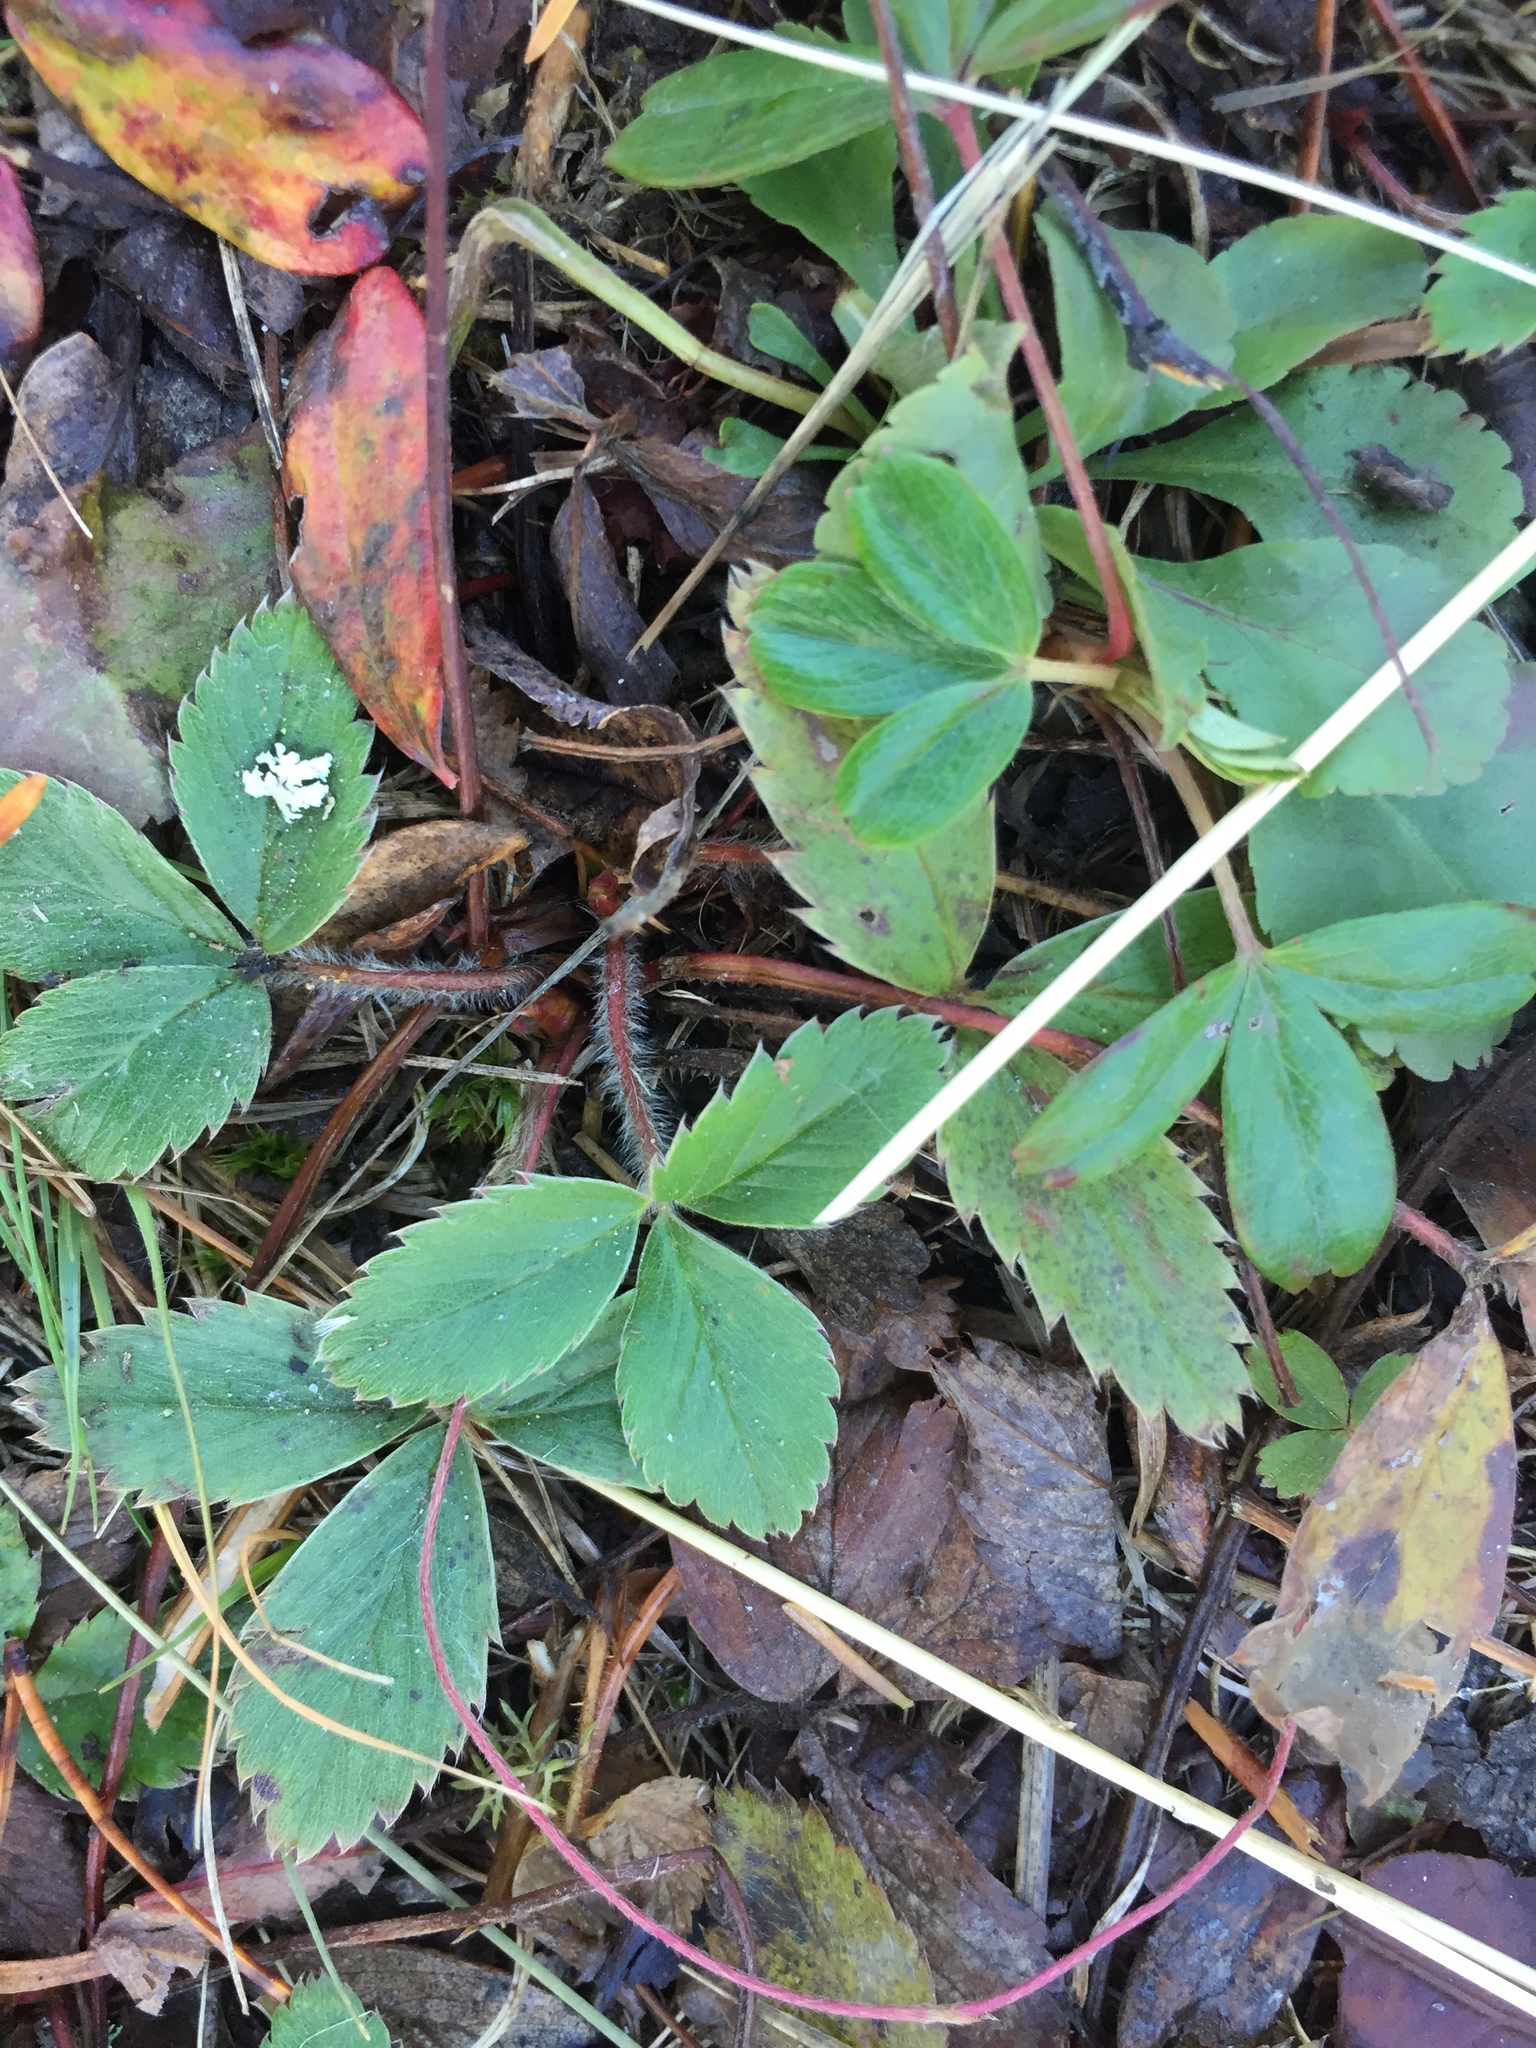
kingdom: Plantae
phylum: Tracheophyta
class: Magnoliopsida
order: Rosales
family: Rosaceae
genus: Fragaria
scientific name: Fragaria virginiana
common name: Thickleaved wild strawberry
